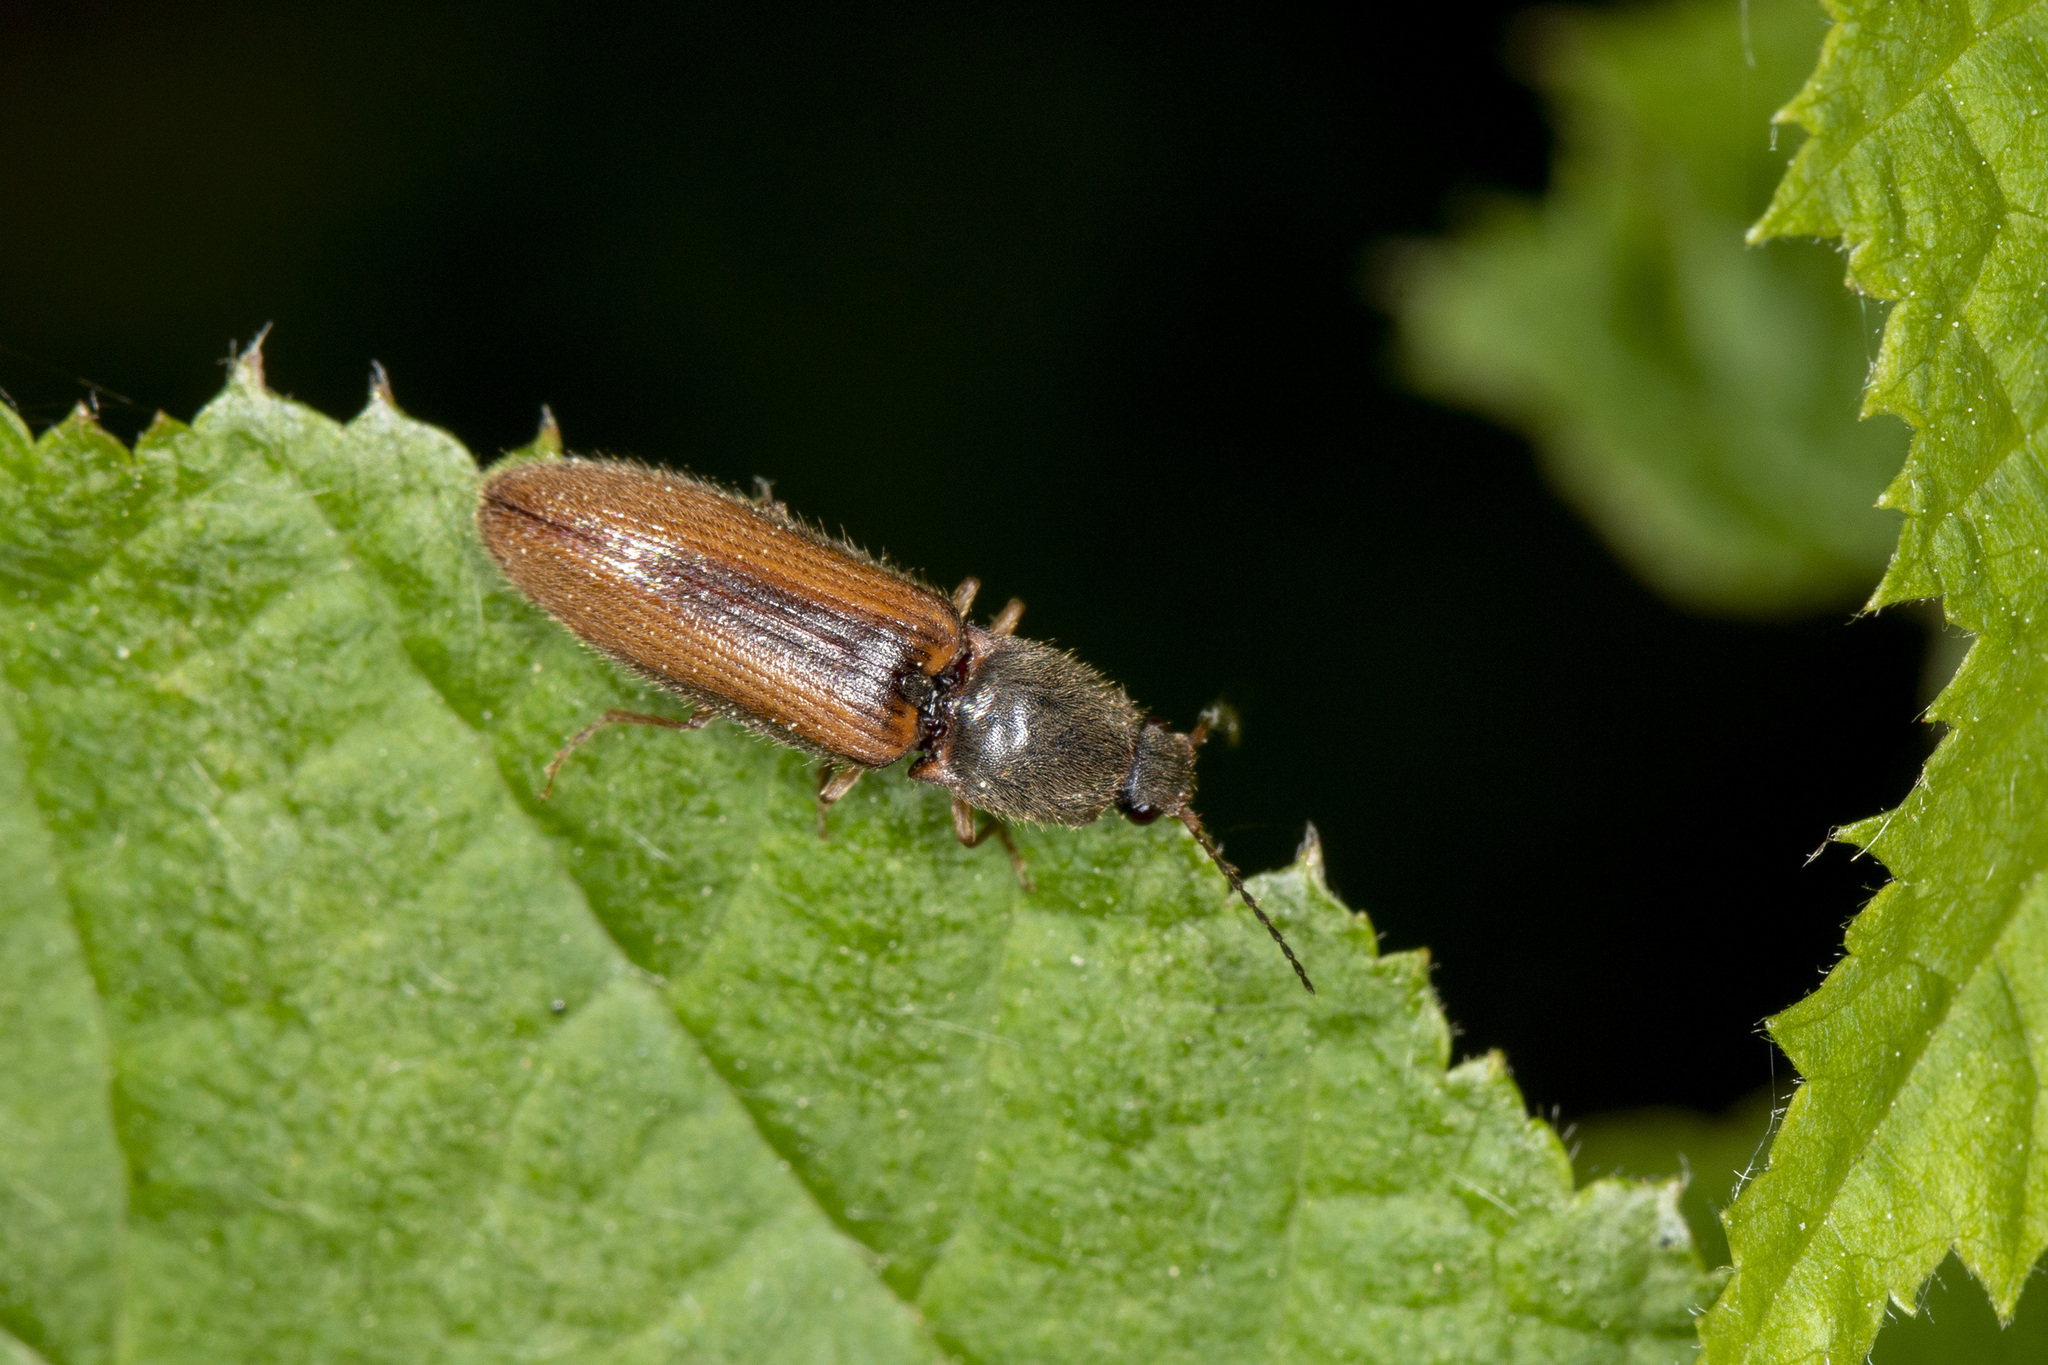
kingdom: Animalia
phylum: Arthropoda
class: Insecta
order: Coleoptera
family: Elateridae
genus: Athous
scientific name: Athous vittatus
